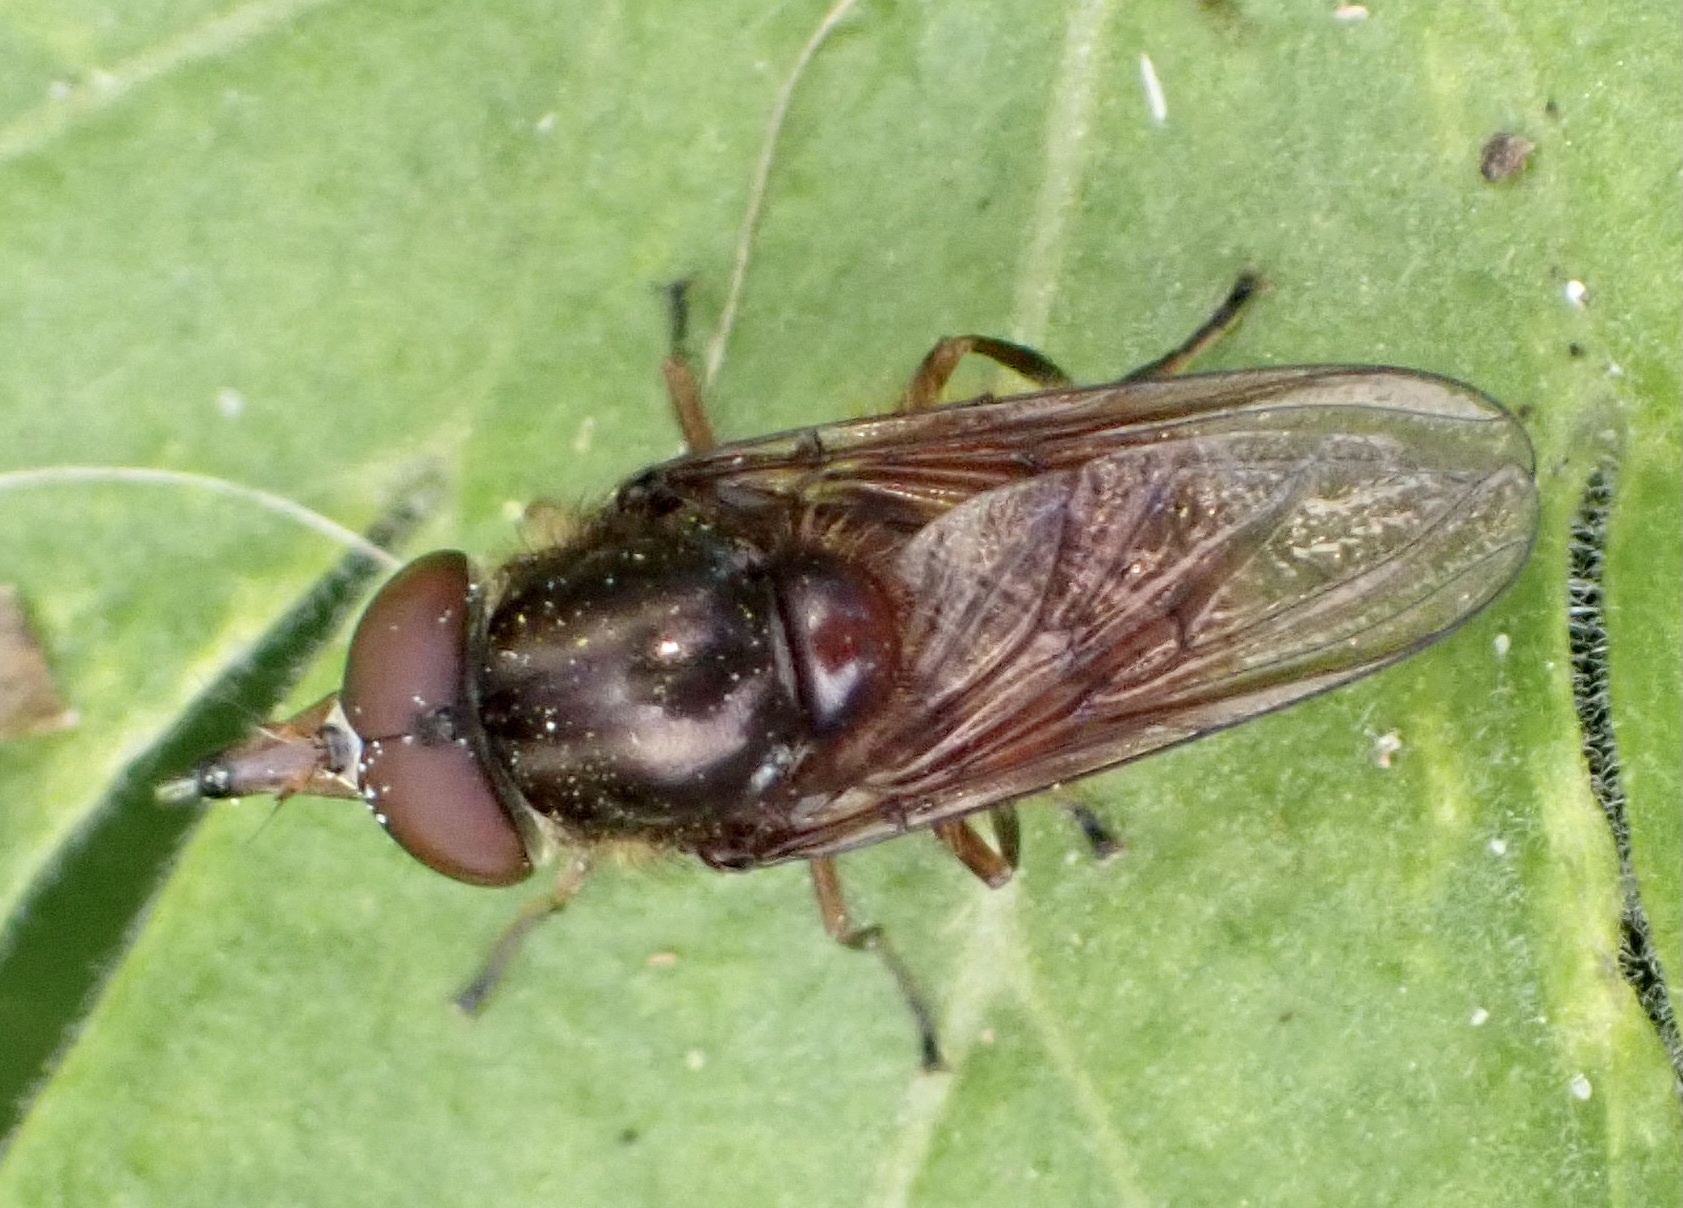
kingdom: Animalia
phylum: Arthropoda
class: Insecta
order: Diptera
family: Syrphidae
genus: Rhingia
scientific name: Rhingia campestris
